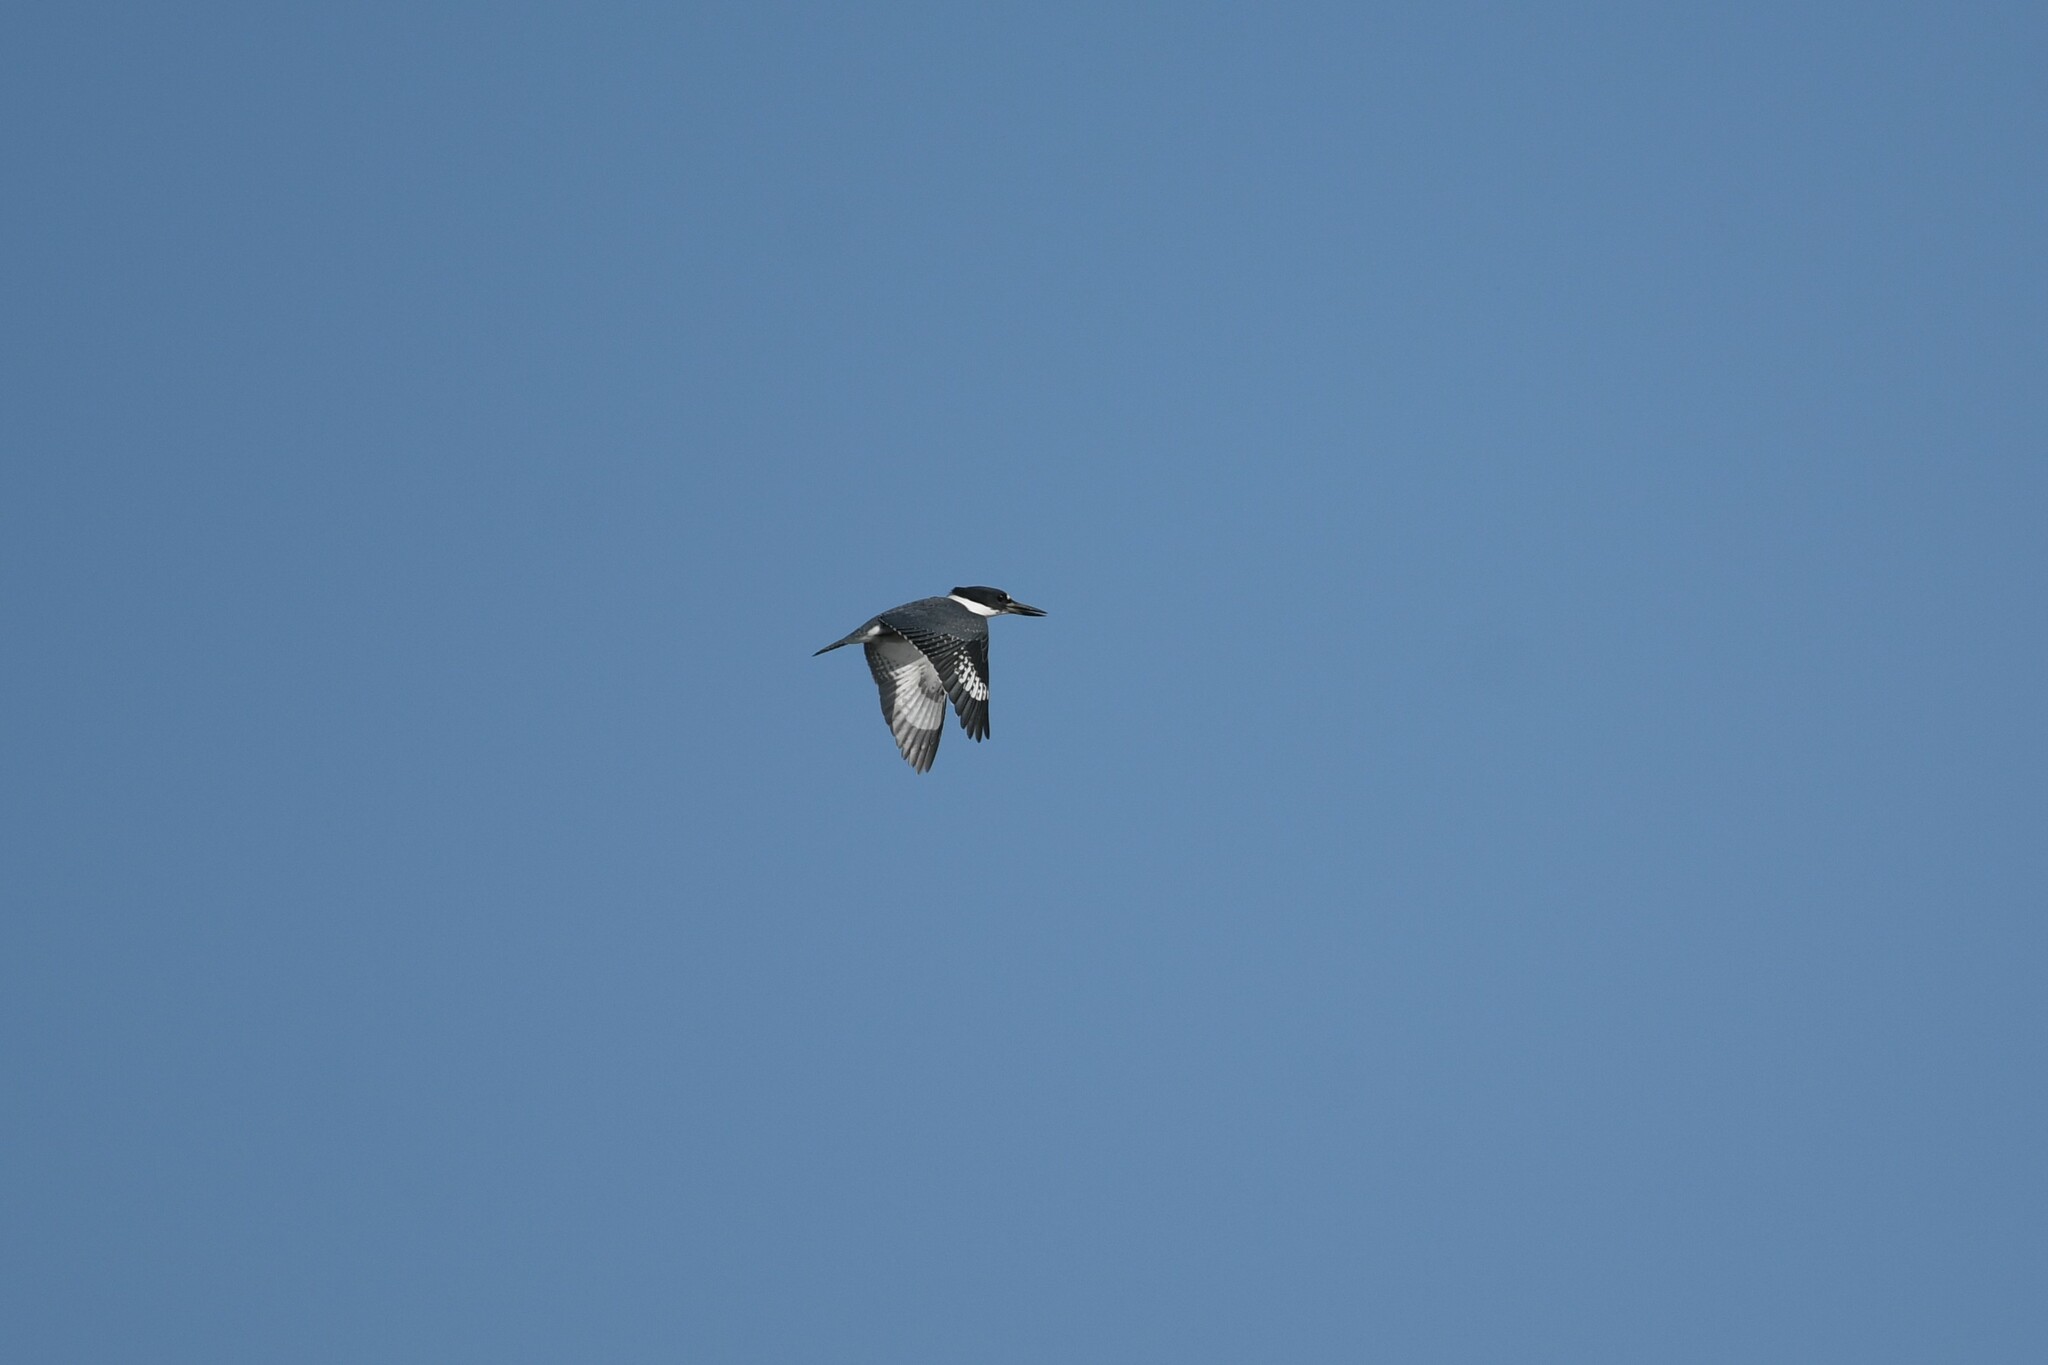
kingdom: Animalia
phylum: Chordata
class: Aves
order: Coraciiformes
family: Alcedinidae
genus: Megaceryle
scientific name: Megaceryle alcyon
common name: Belted kingfisher
